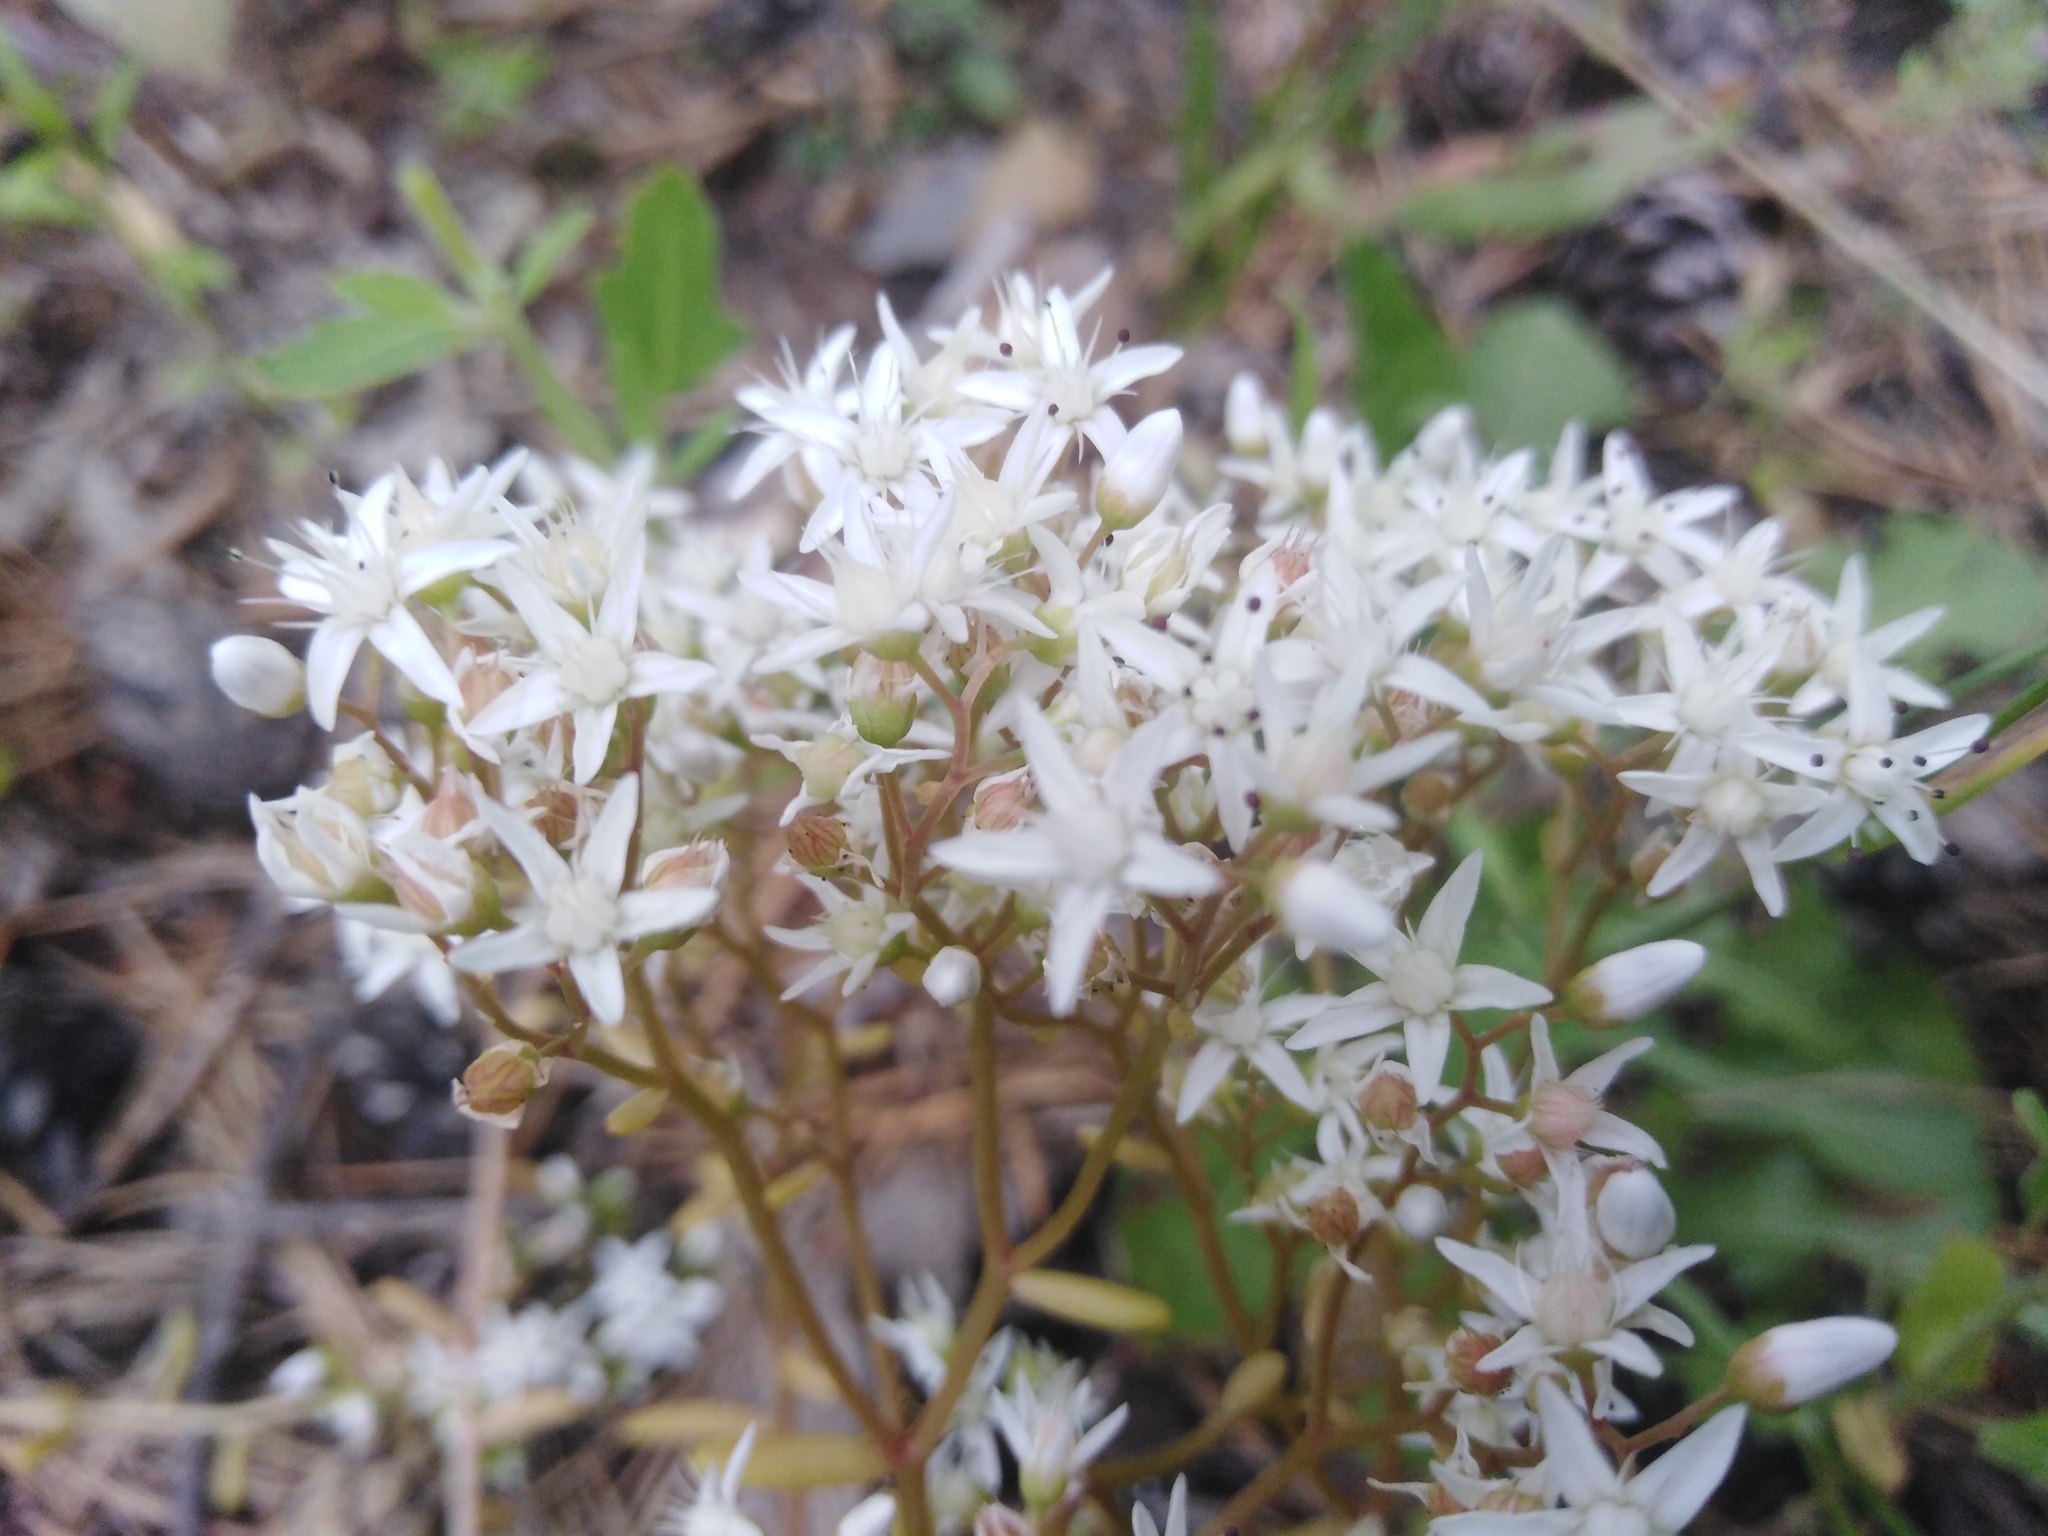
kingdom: Plantae
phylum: Tracheophyta
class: Magnoliopsida
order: Saxifragales
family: Crassulaceae
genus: Sedum
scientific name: Sedum album
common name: White stonecrop
